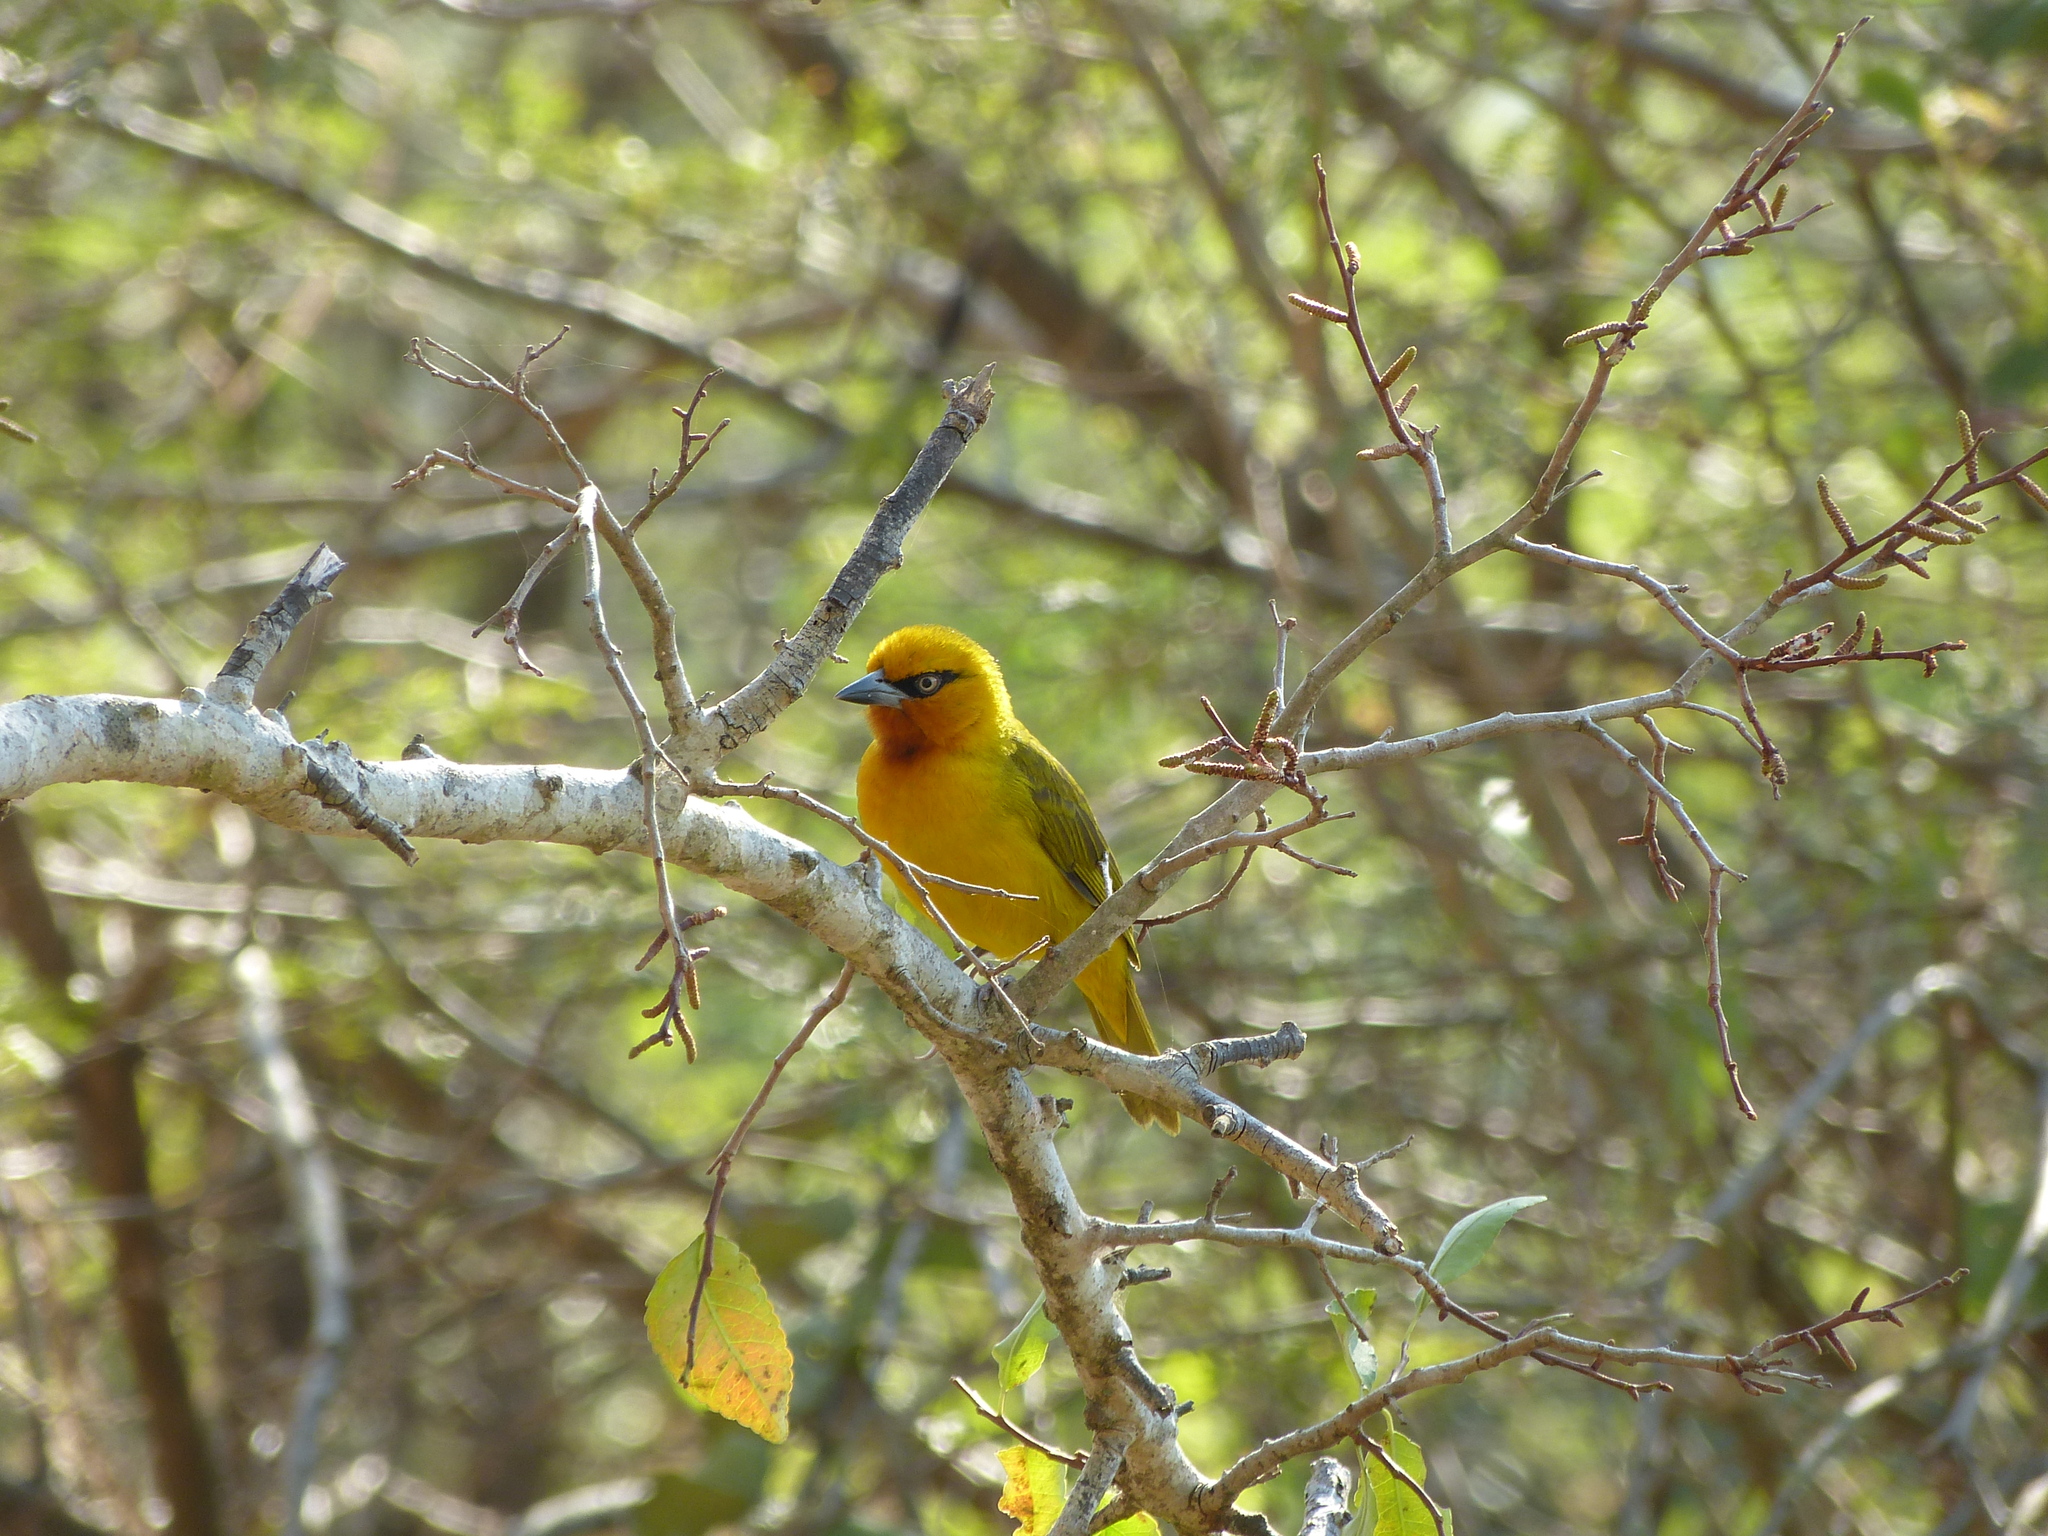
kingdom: Animalia
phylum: Chordata
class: Aves
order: Passeriformes
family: Ploceidae
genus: Ploceus
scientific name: Ploceus ocularis
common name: Spectacled weaver
